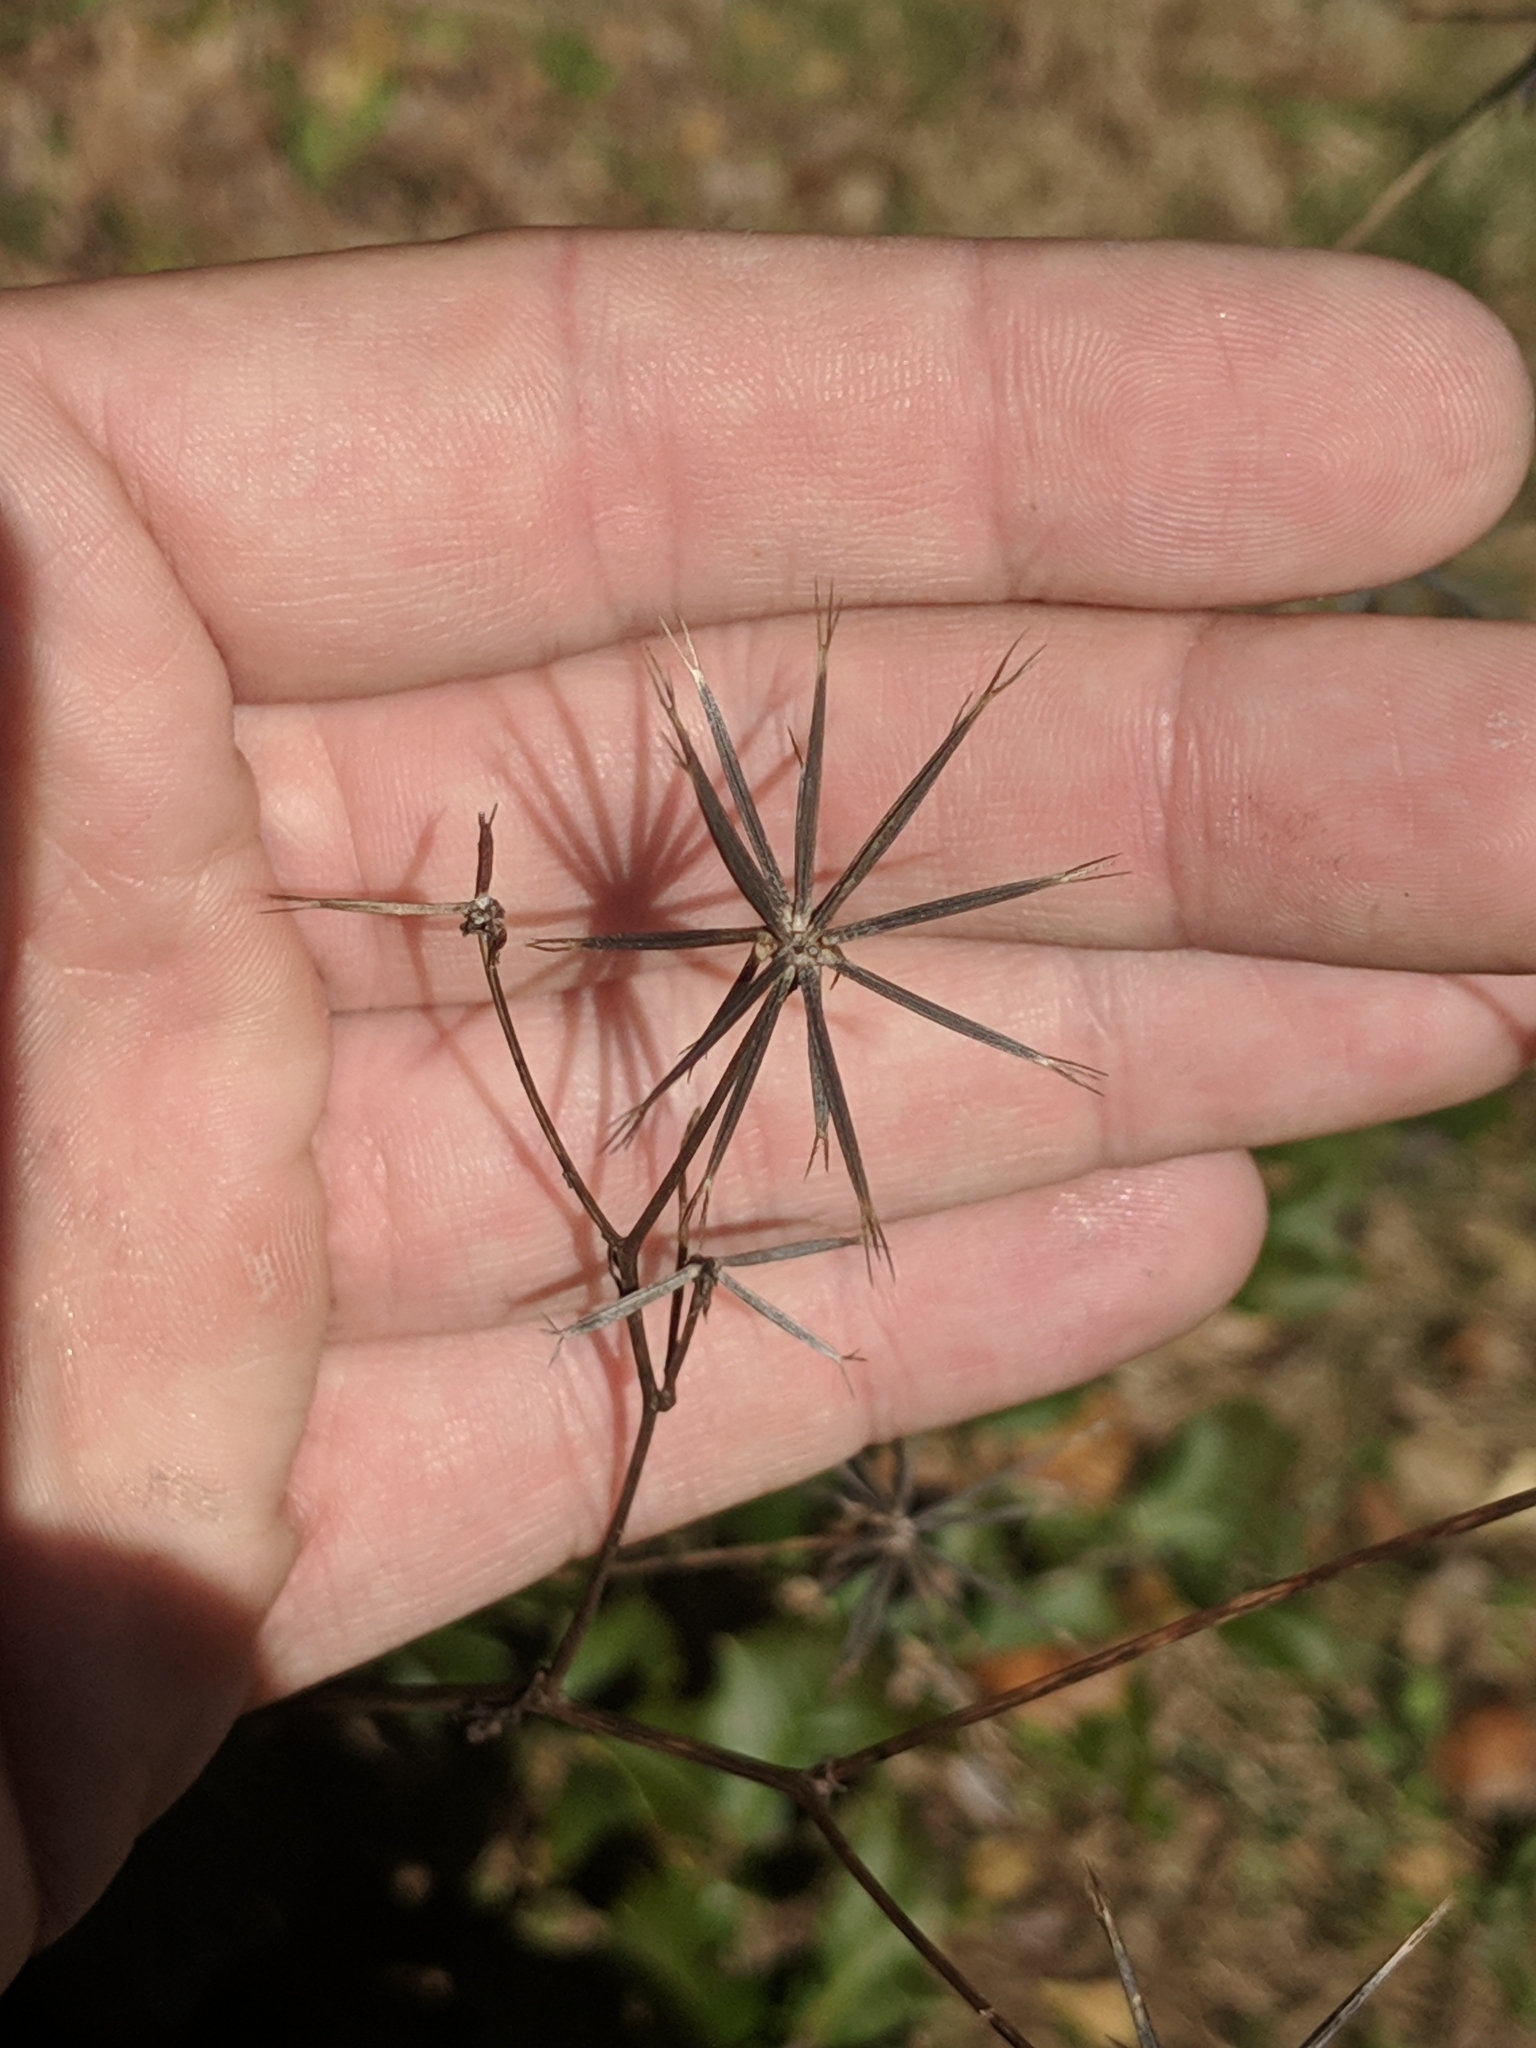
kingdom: Plantae
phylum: Tracheophyta
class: Magnoliopsida
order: Asterales
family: Asteraceae
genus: Bidens
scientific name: Bidens bipinnata
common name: Spanish-needles
